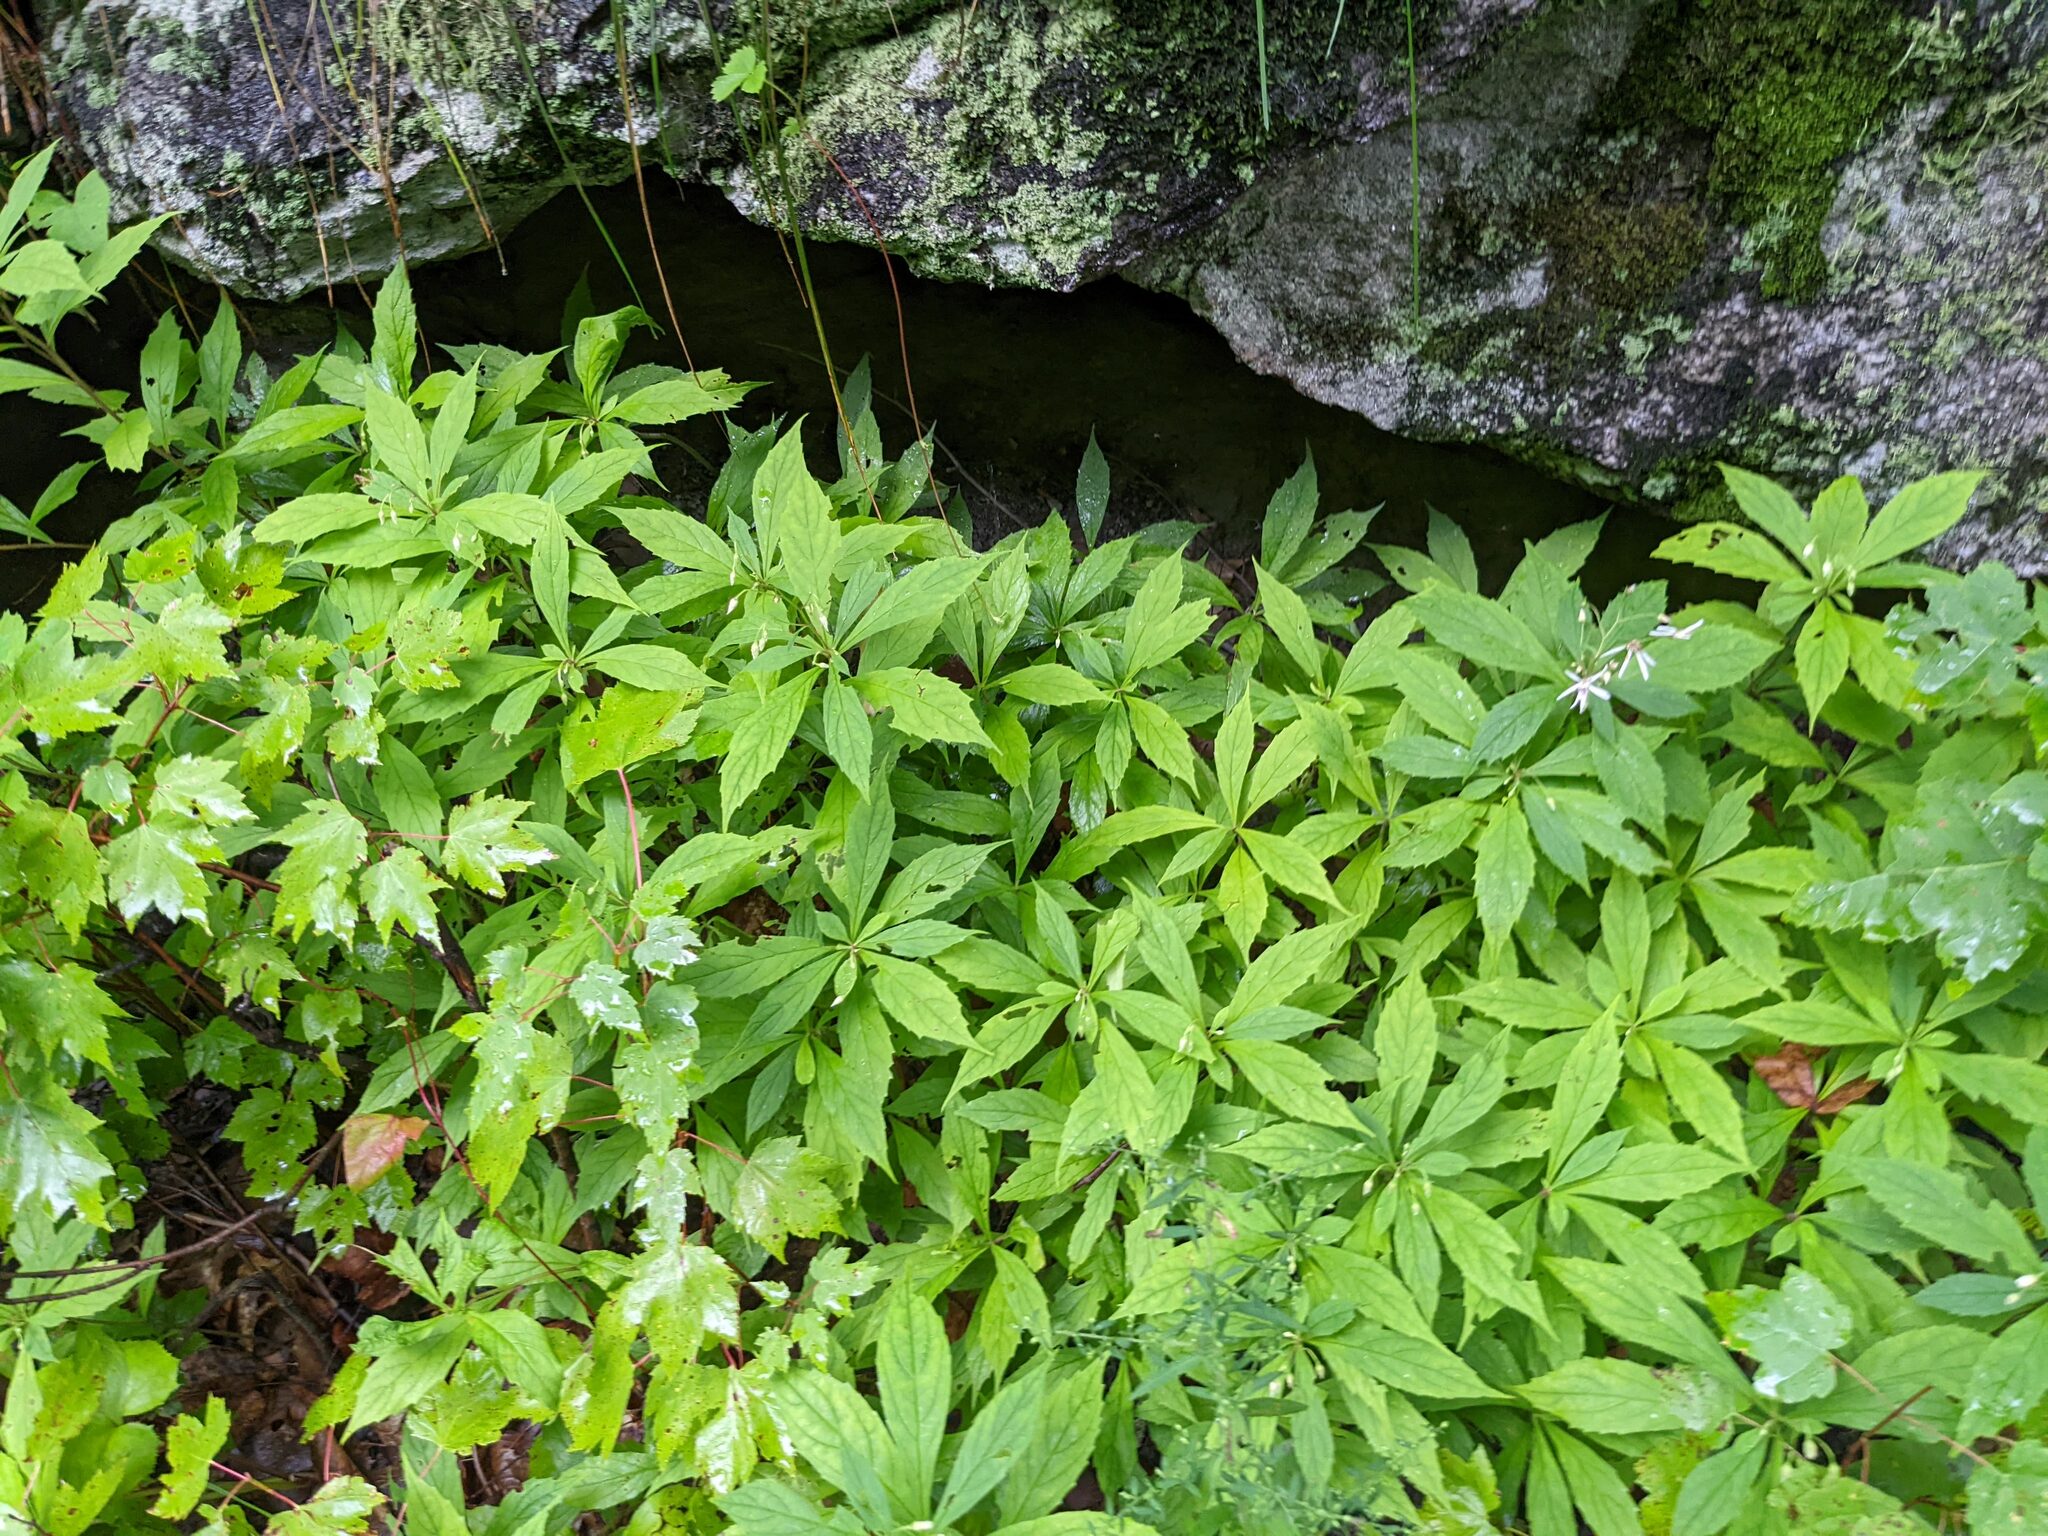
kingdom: Plantae
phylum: Tracheophyta
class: Magnoliopsida
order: Asterales
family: Asteraceae
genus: Oclemena
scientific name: Oclemena acuminata
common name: Mountain aster
